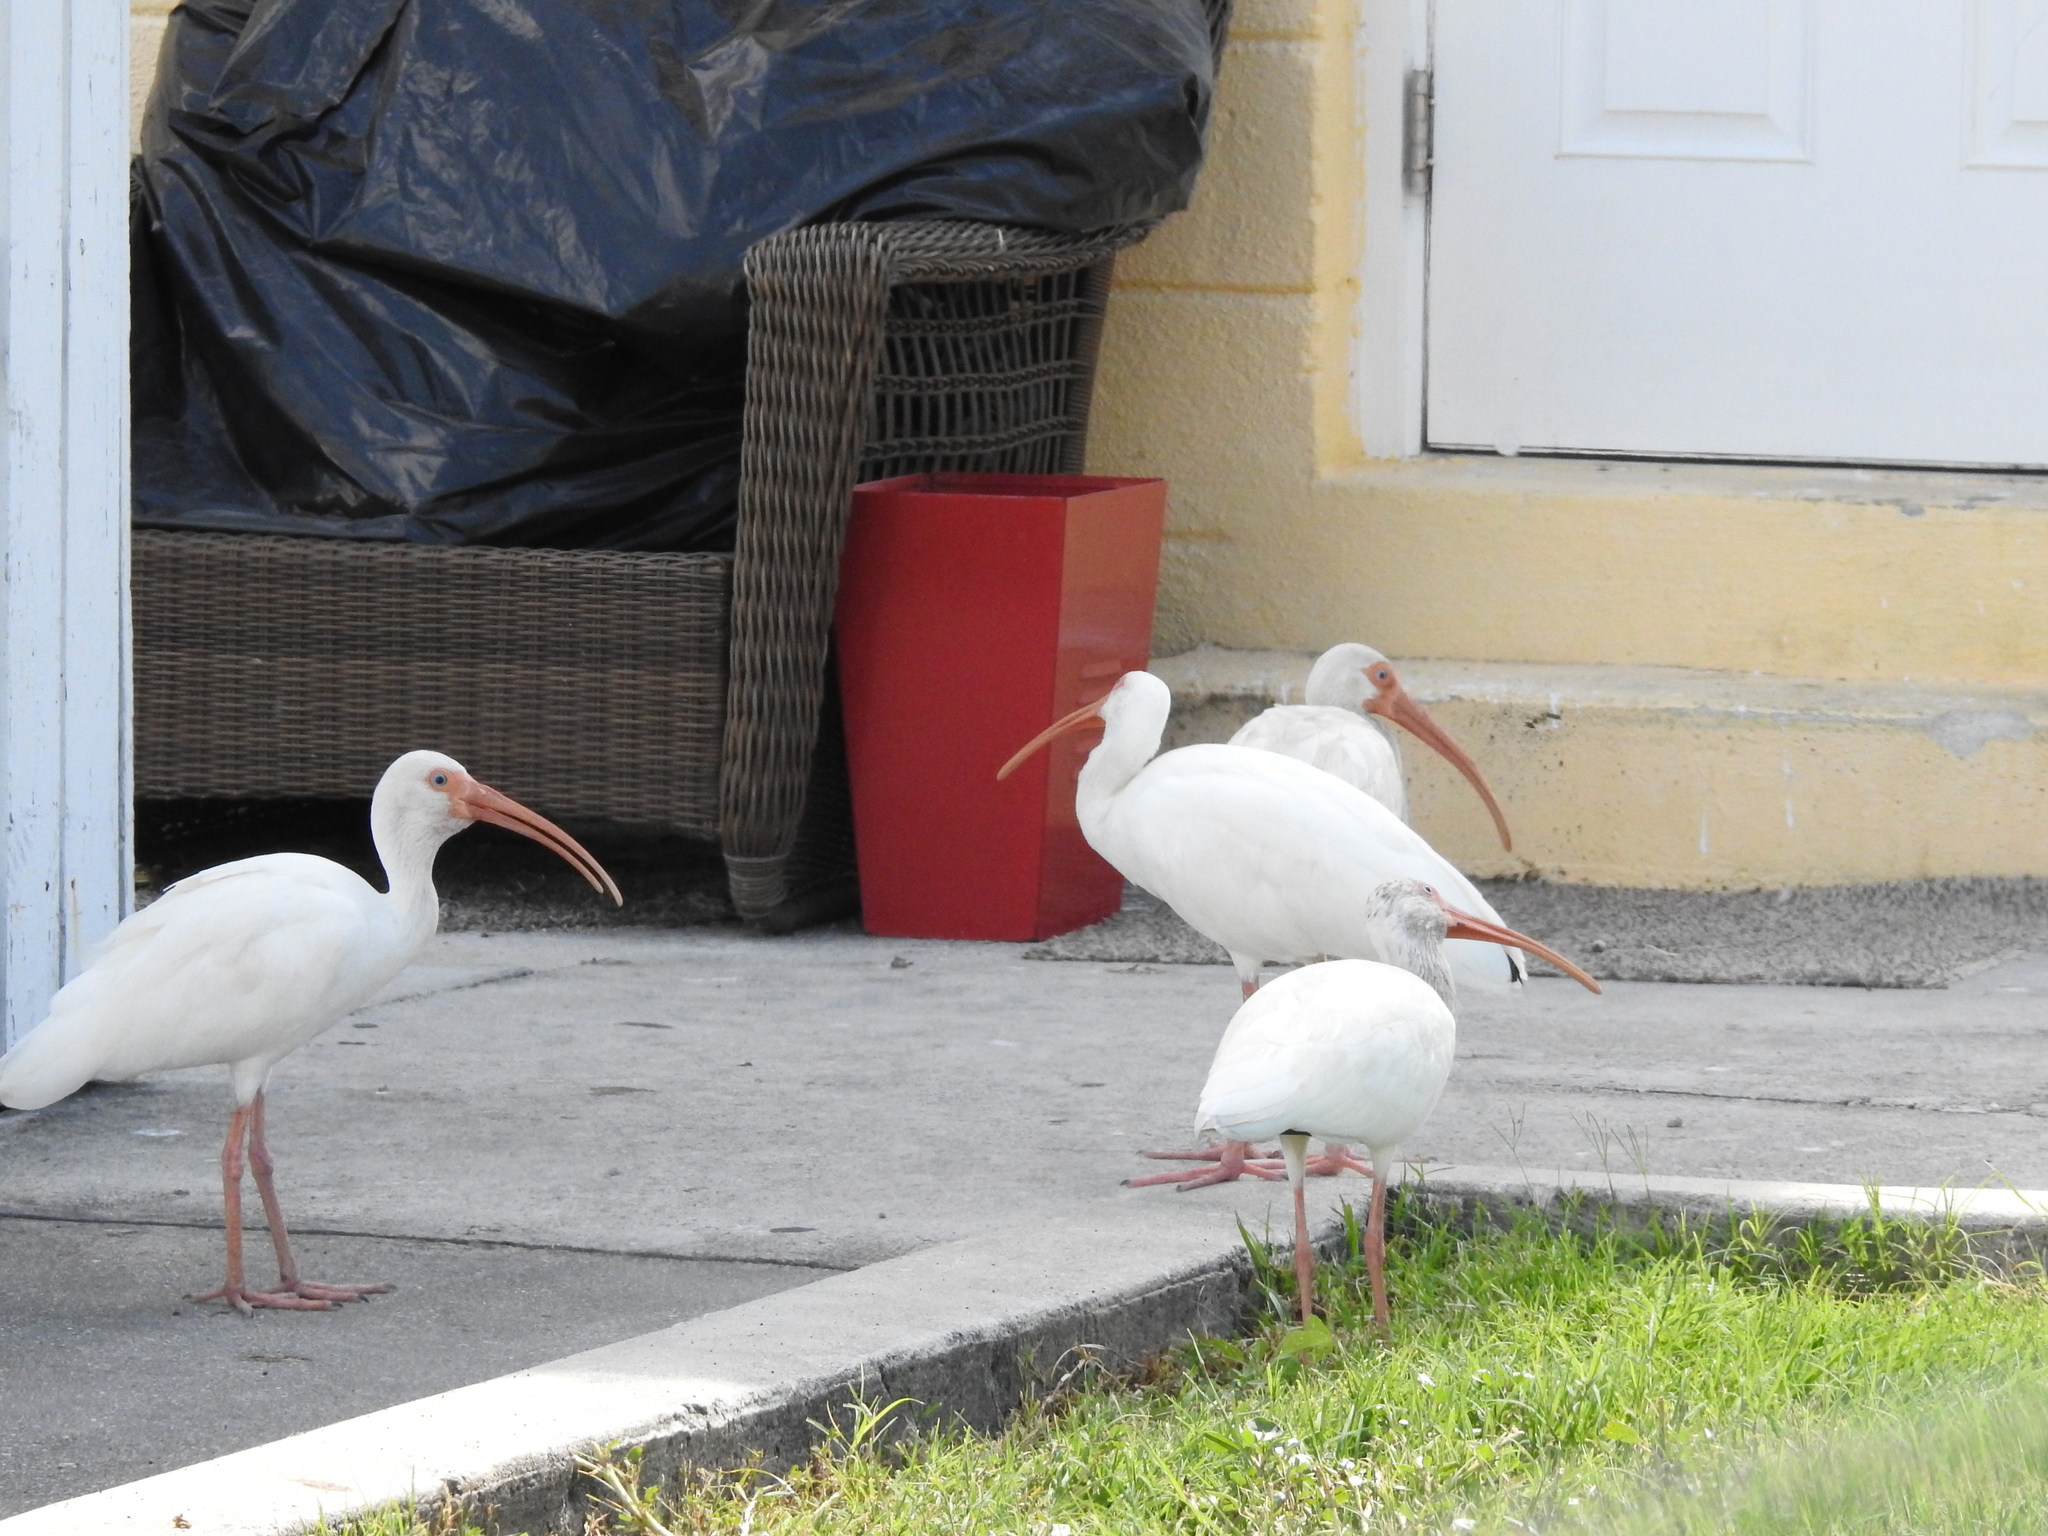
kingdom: Animalia
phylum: Chordata
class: Aves
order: Pelecaniformes
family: Threskiornithidae
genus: Eudocimus
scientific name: Eudocimus albus
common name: White ibis
